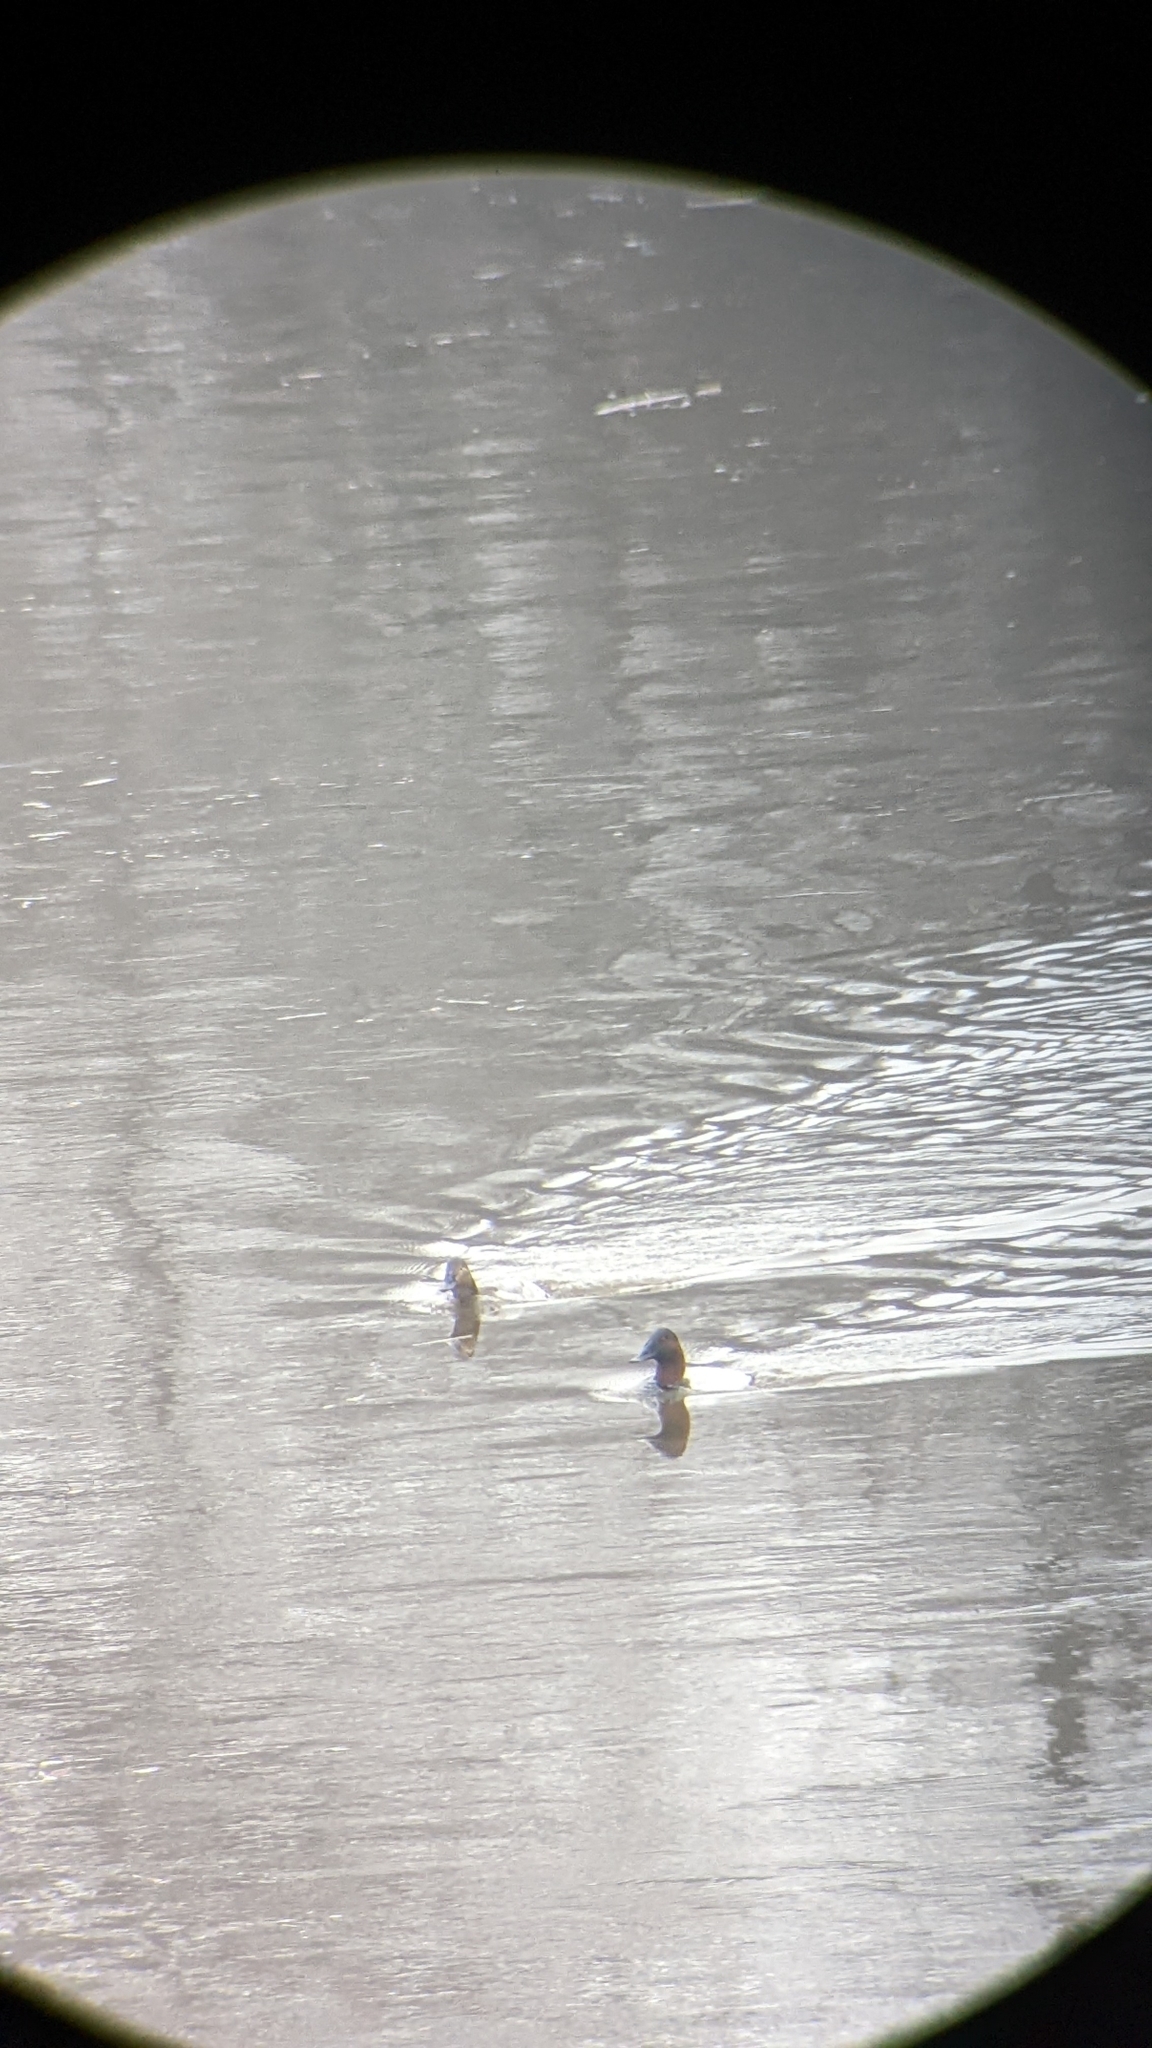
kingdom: Animalia
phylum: Chordata
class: Aves
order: Anseriformes
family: Anatidae
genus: Aythya
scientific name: Aythya valisineria
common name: Canvasback
